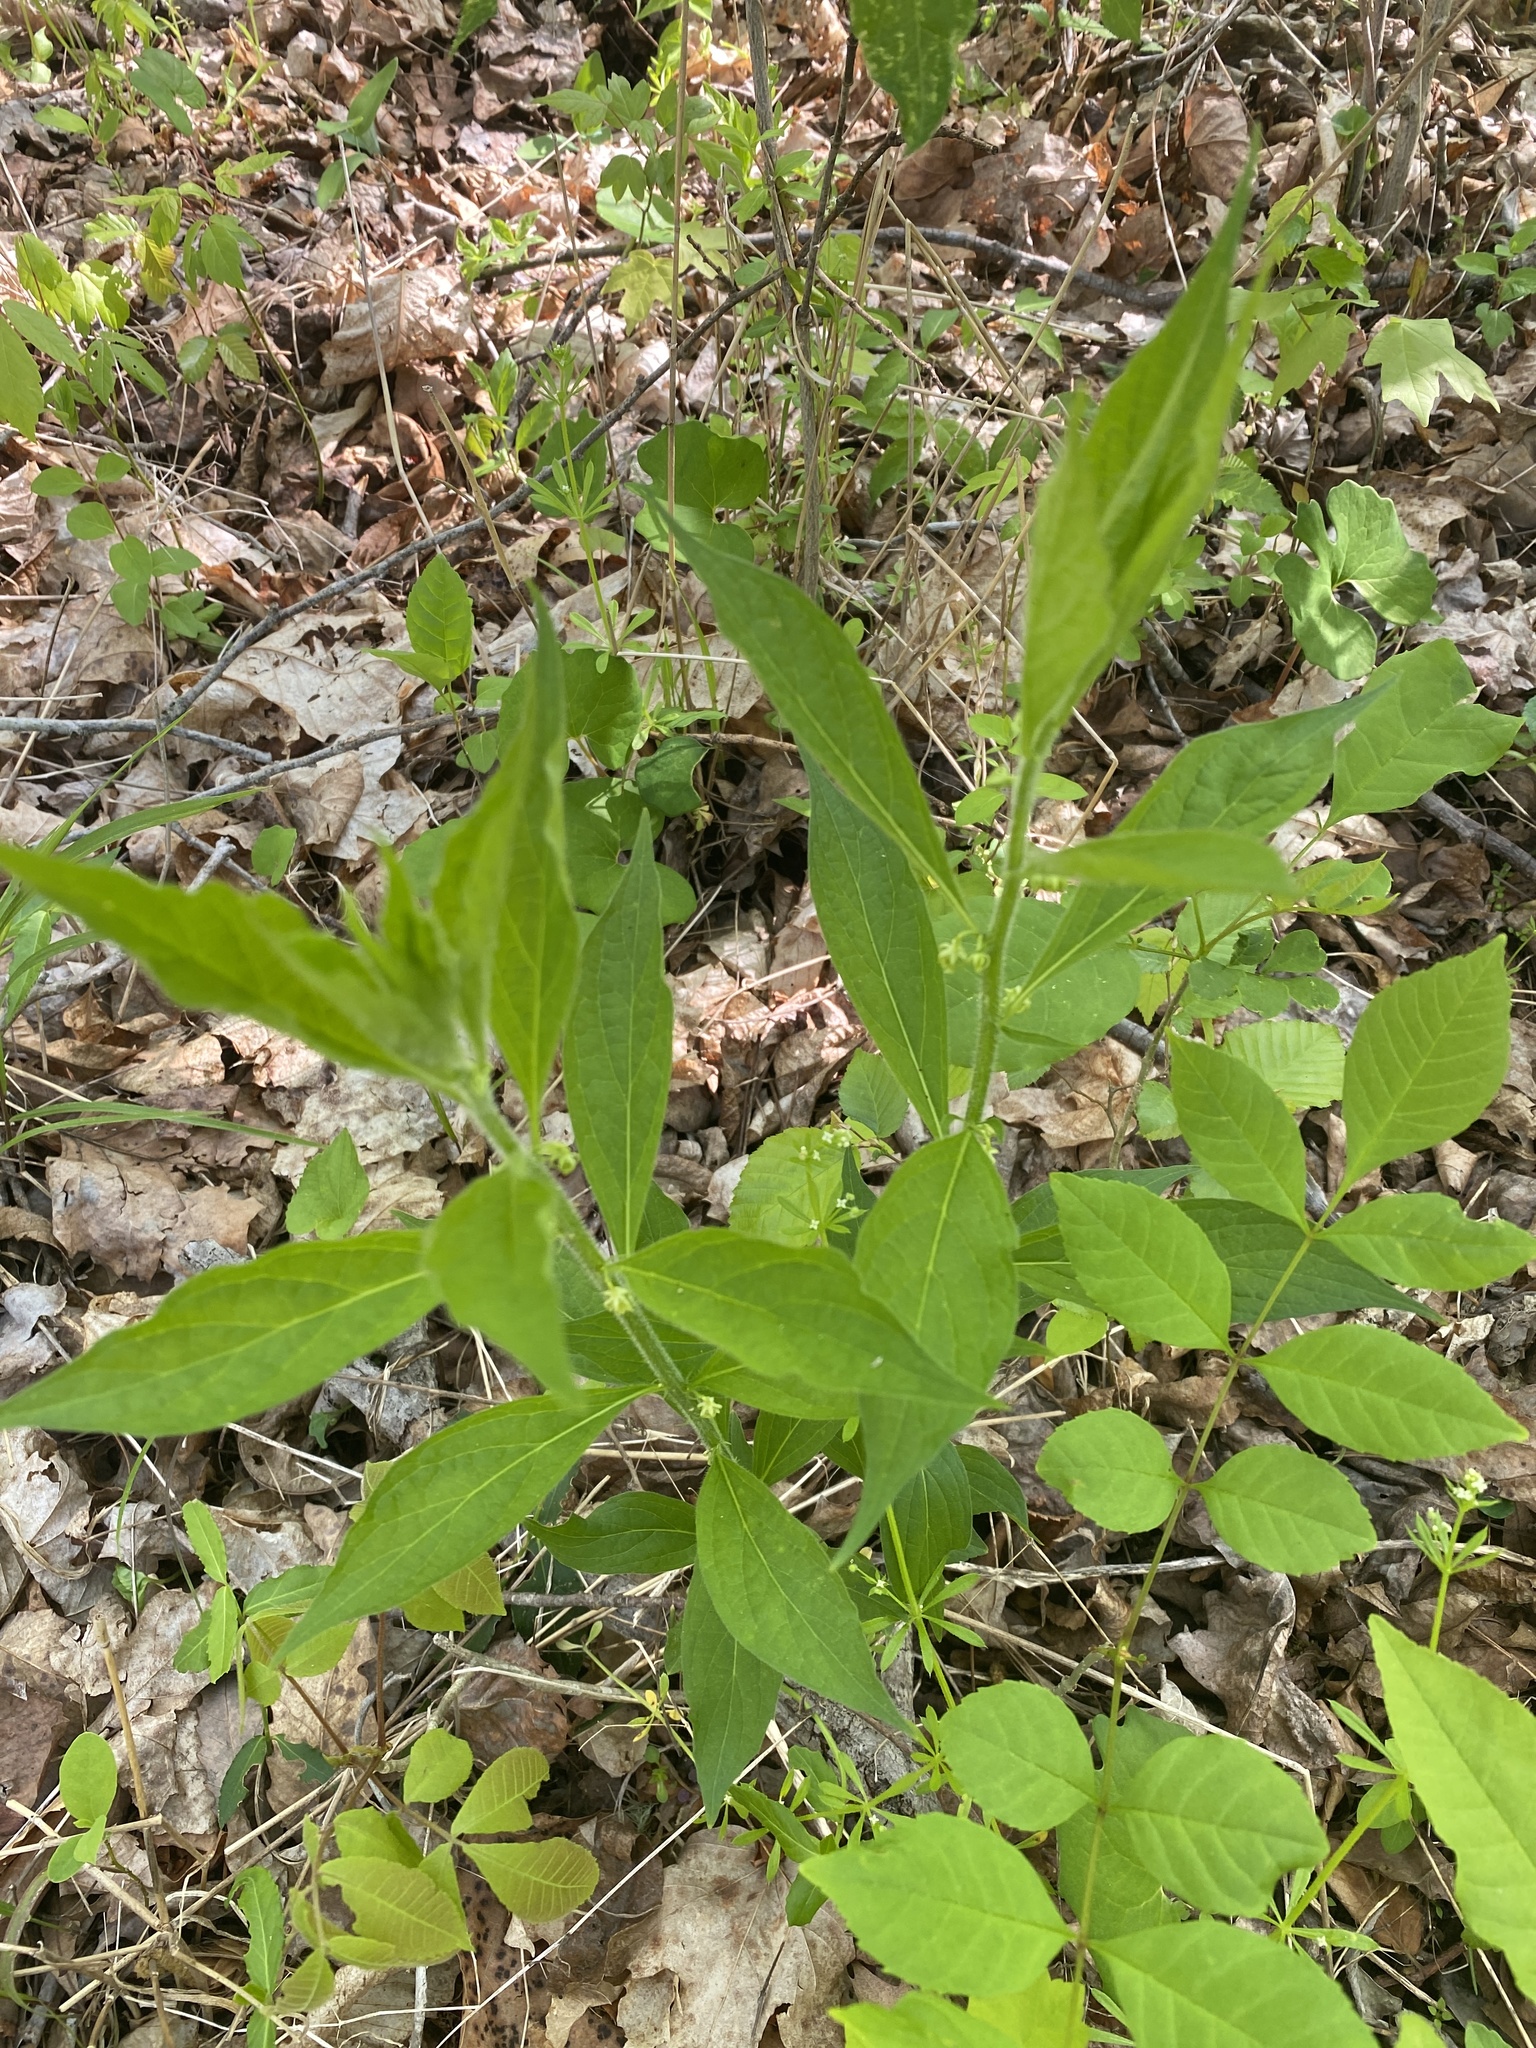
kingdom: Plantae
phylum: Tracheophyta
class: Magnoliopsida
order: Malpighiales
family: Violaceae
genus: Cubelium
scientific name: Cubelium concolor
